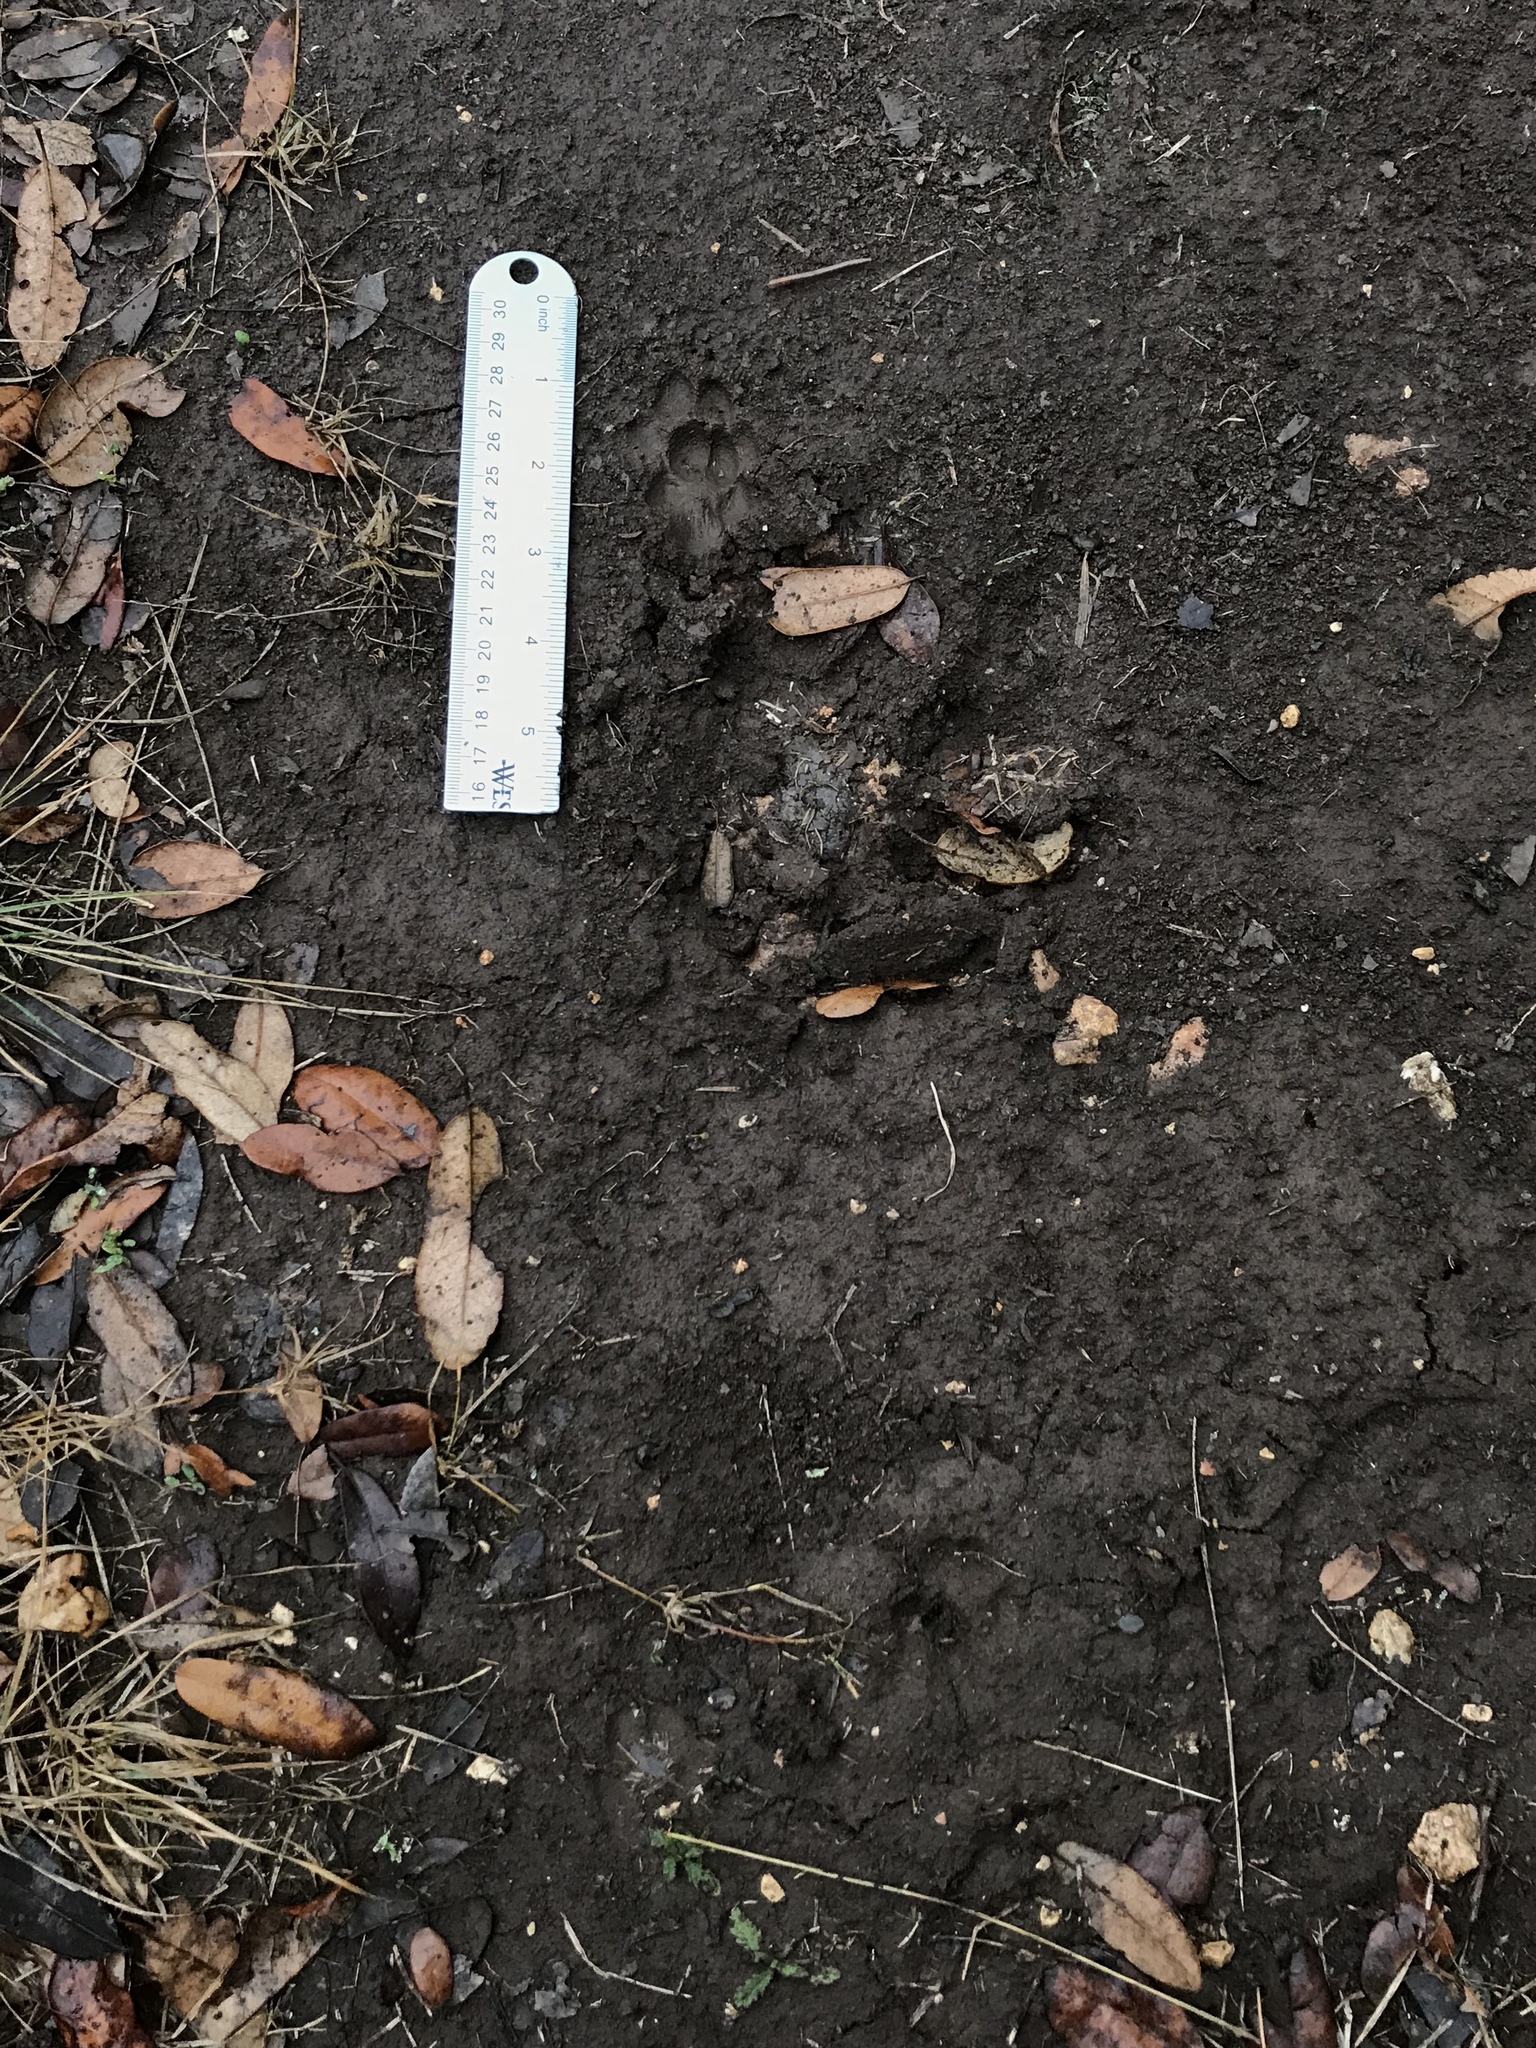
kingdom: Animalia
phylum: Chordata
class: Mammalia
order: Carnivora
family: Canidae
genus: Urocyon
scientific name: Urocyon cinereoargenteus
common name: Gray fox
